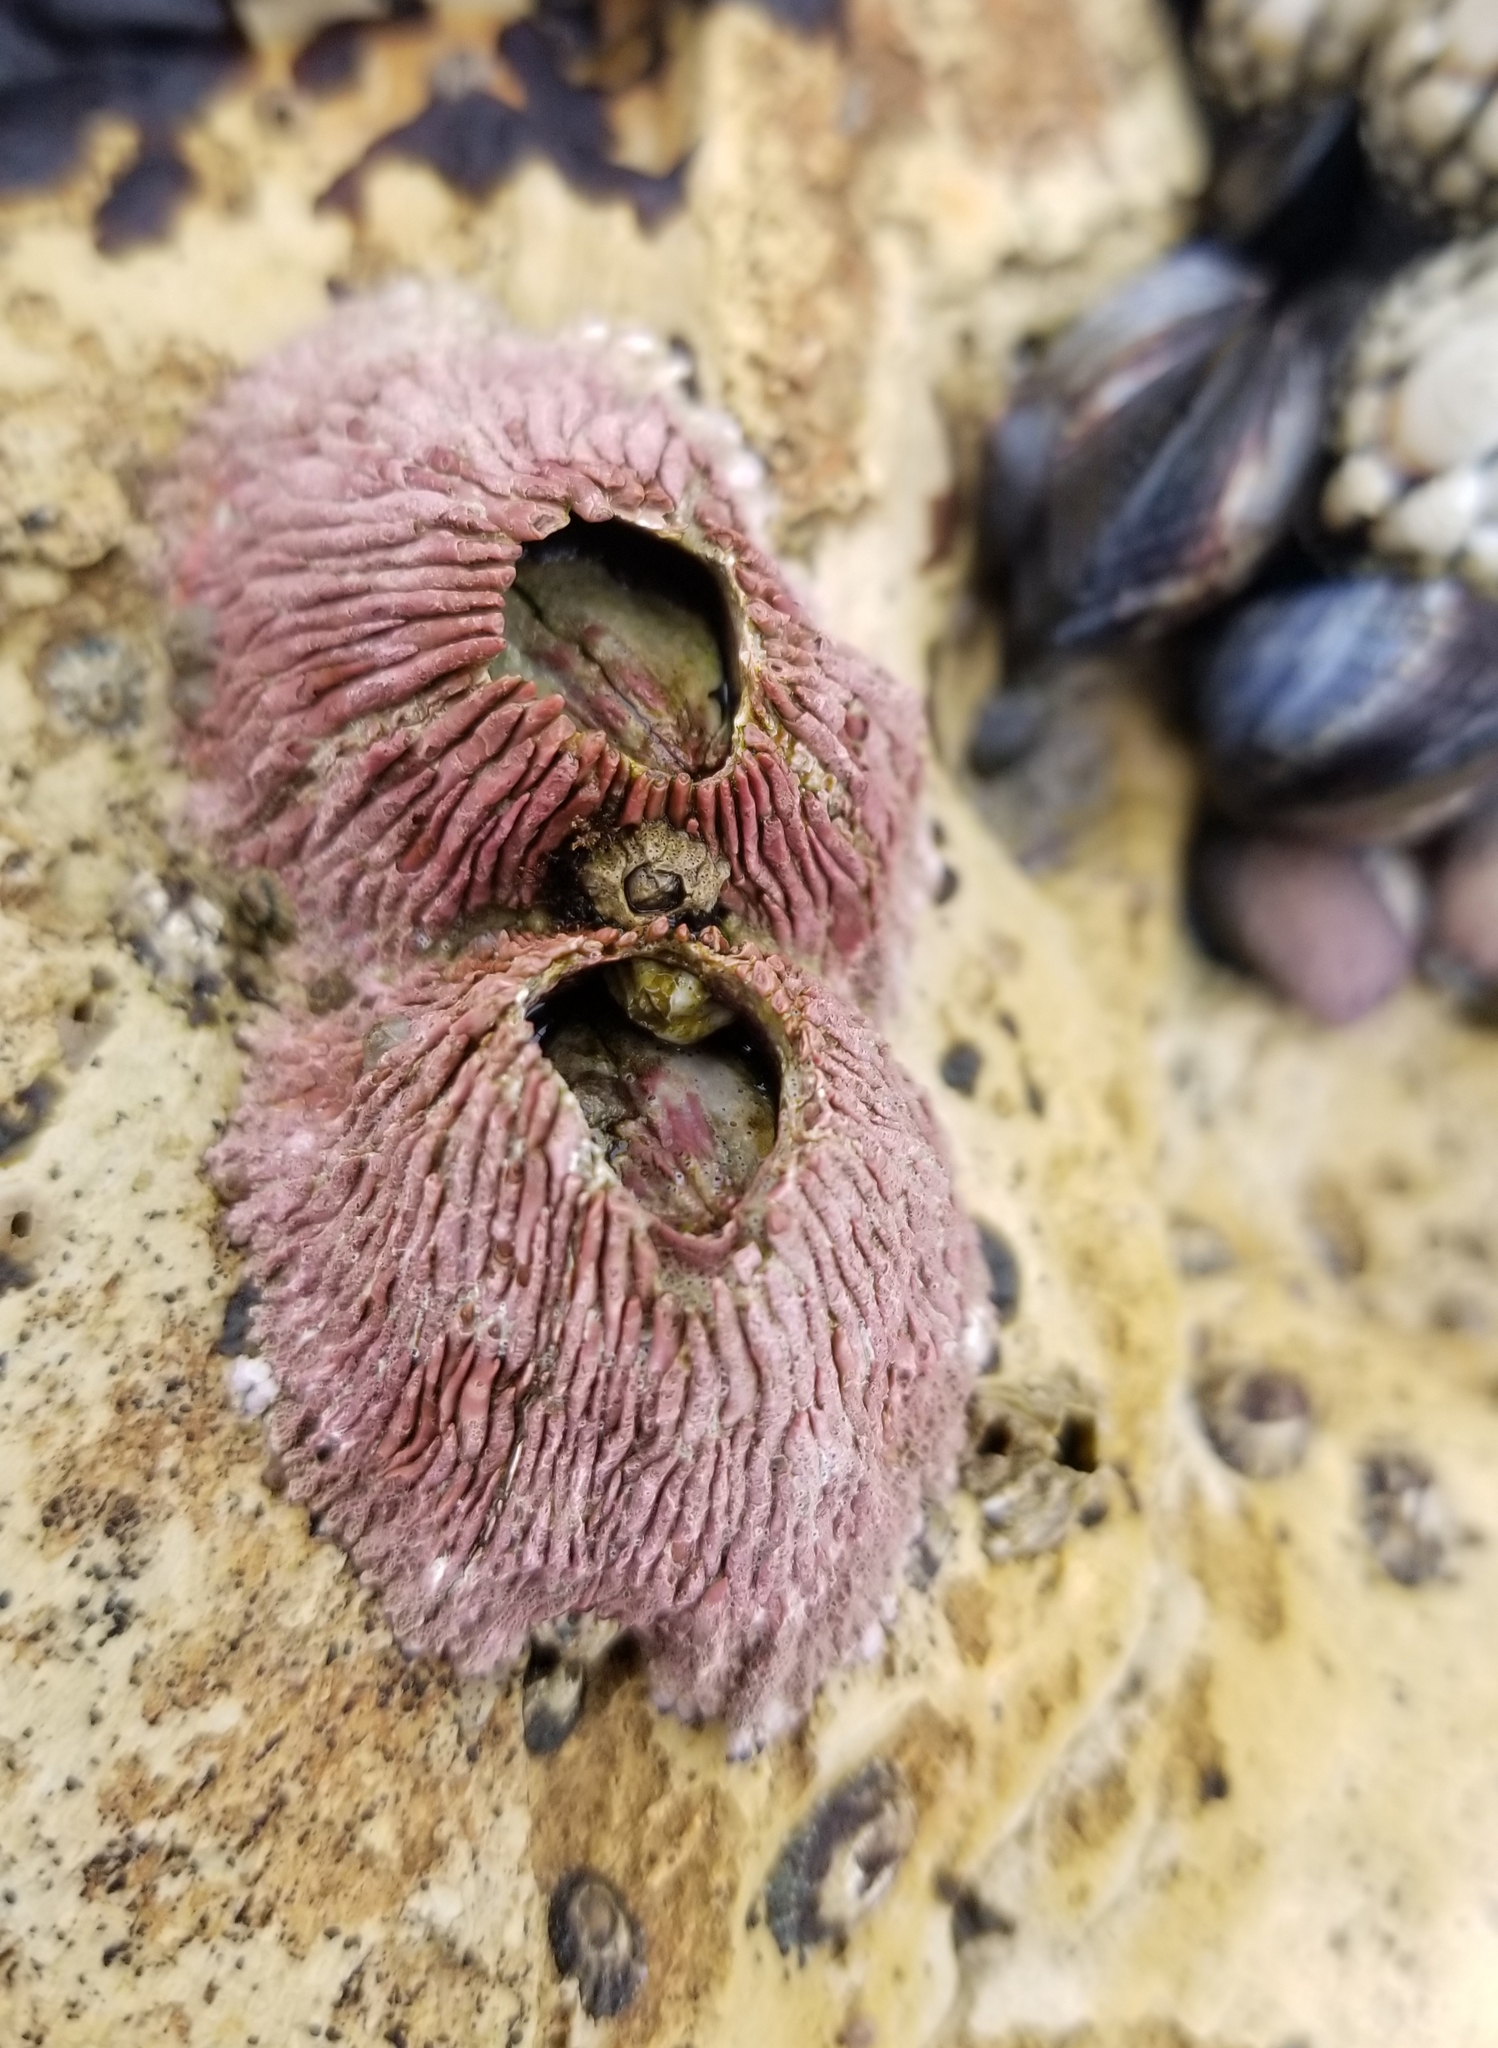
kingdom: Animalia
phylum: Arthropoda
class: Maxillopoda
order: Sessilia
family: Tetraclitidae
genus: Tetraclita
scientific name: Tetraclita rubescens
